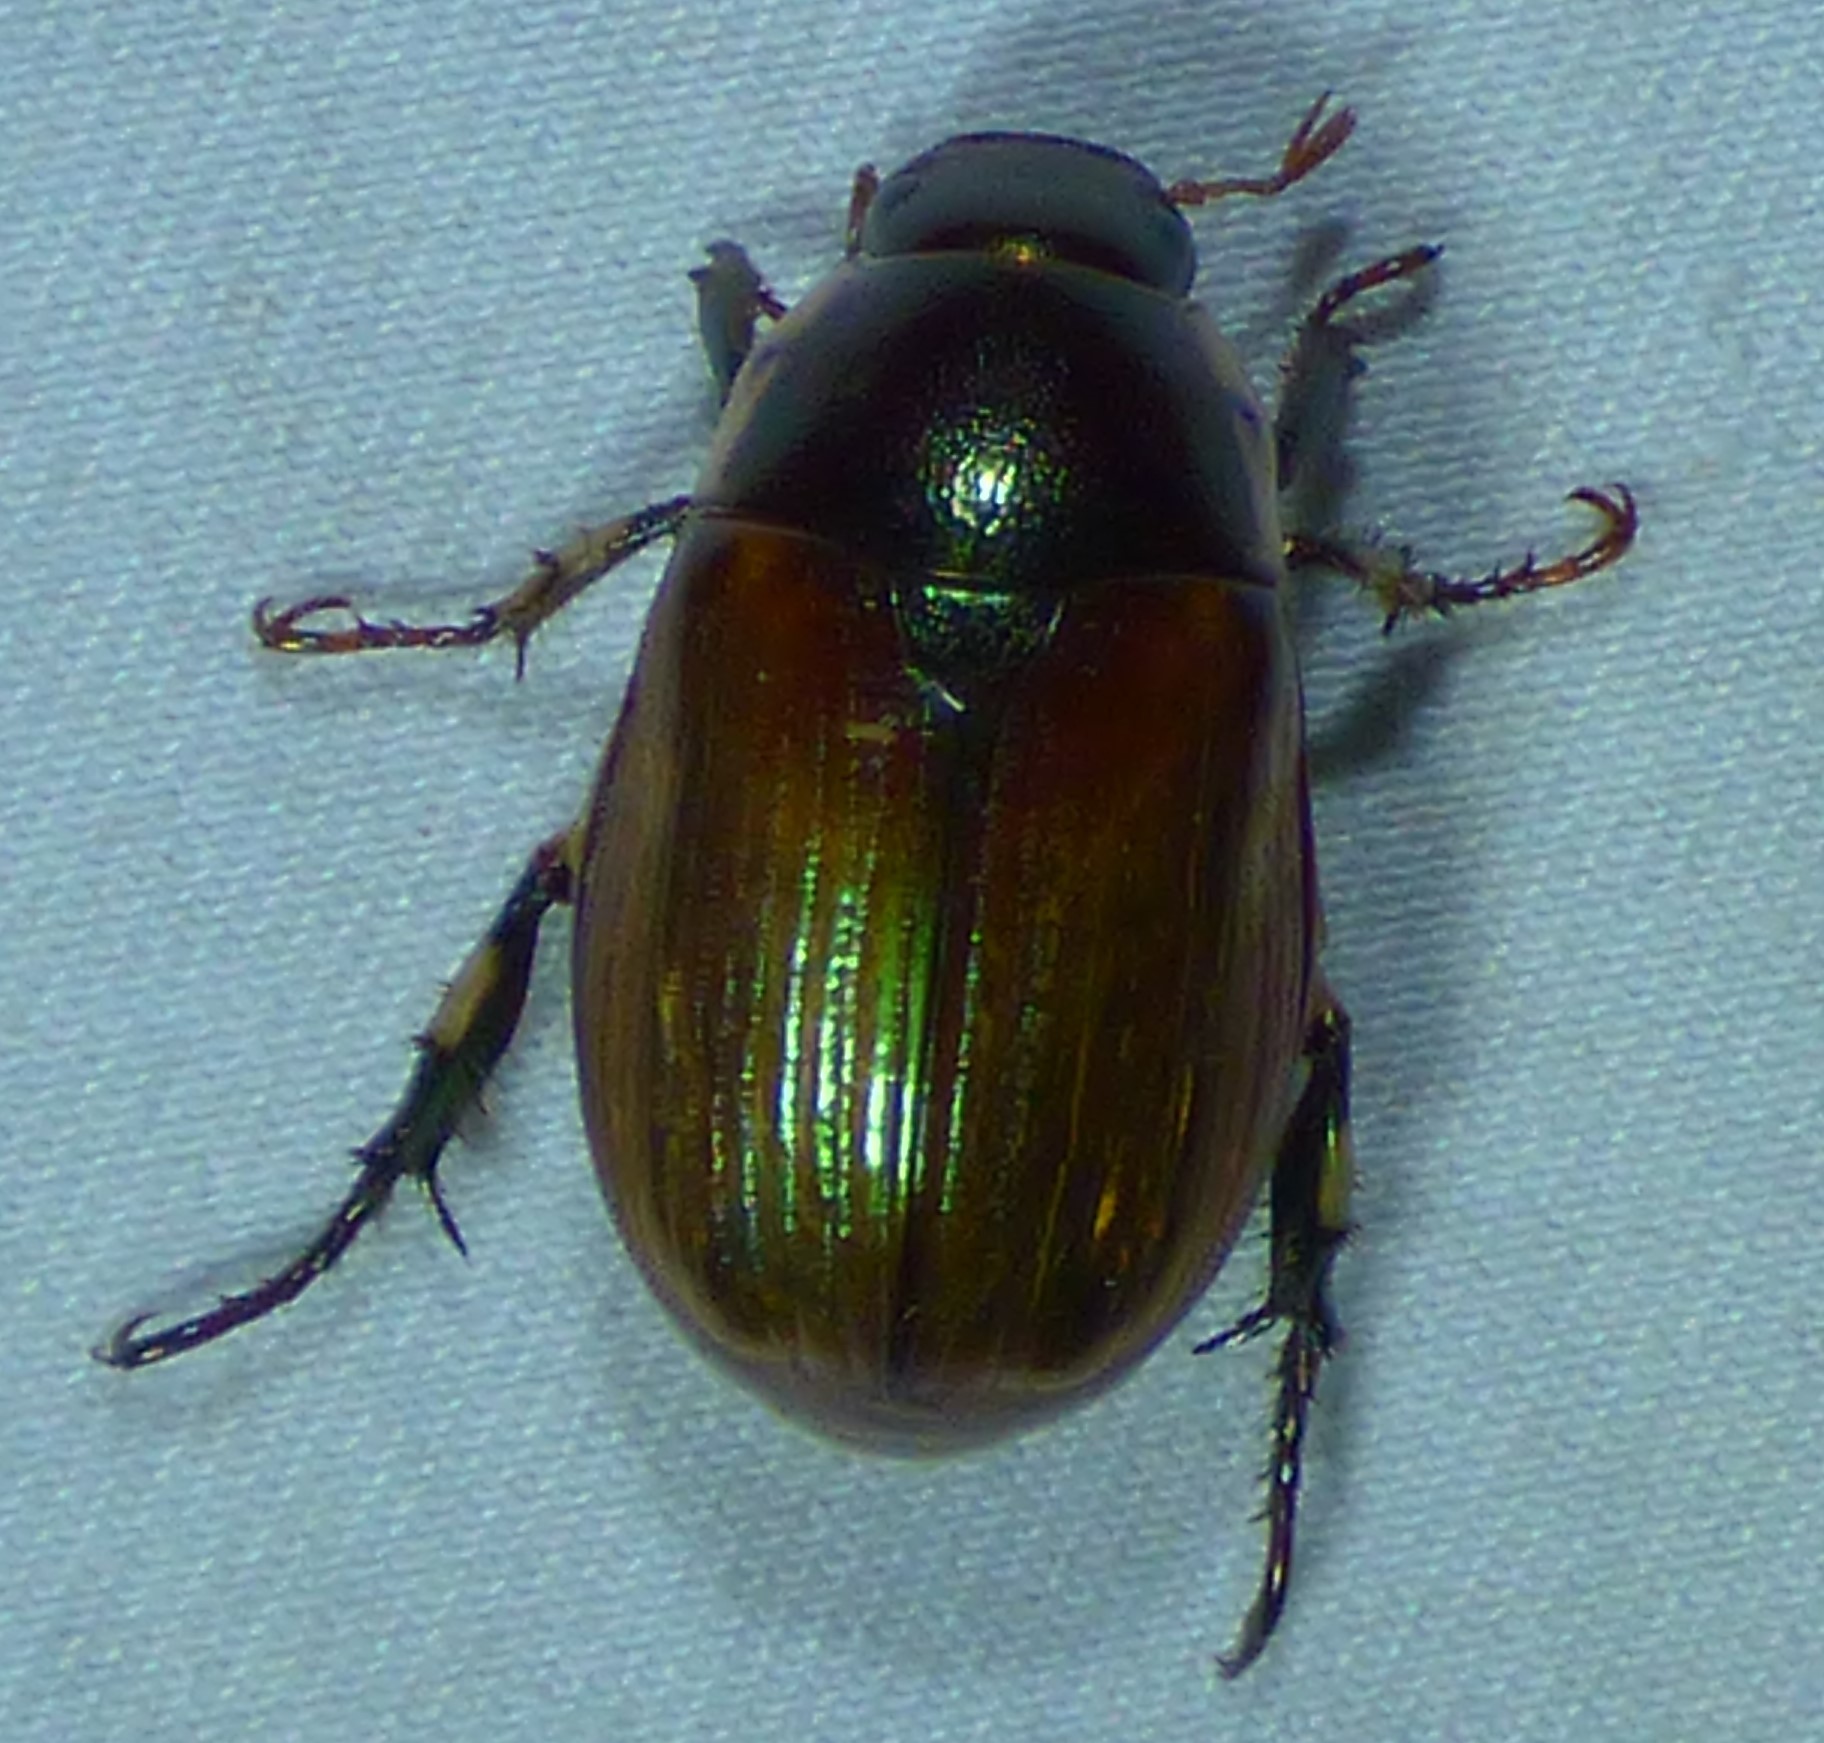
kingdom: Animalia
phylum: Arthropoda
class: Insecta
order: Coleoptera
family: Scarabaeidae
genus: Callistethus
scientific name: Callistethus marginatus
